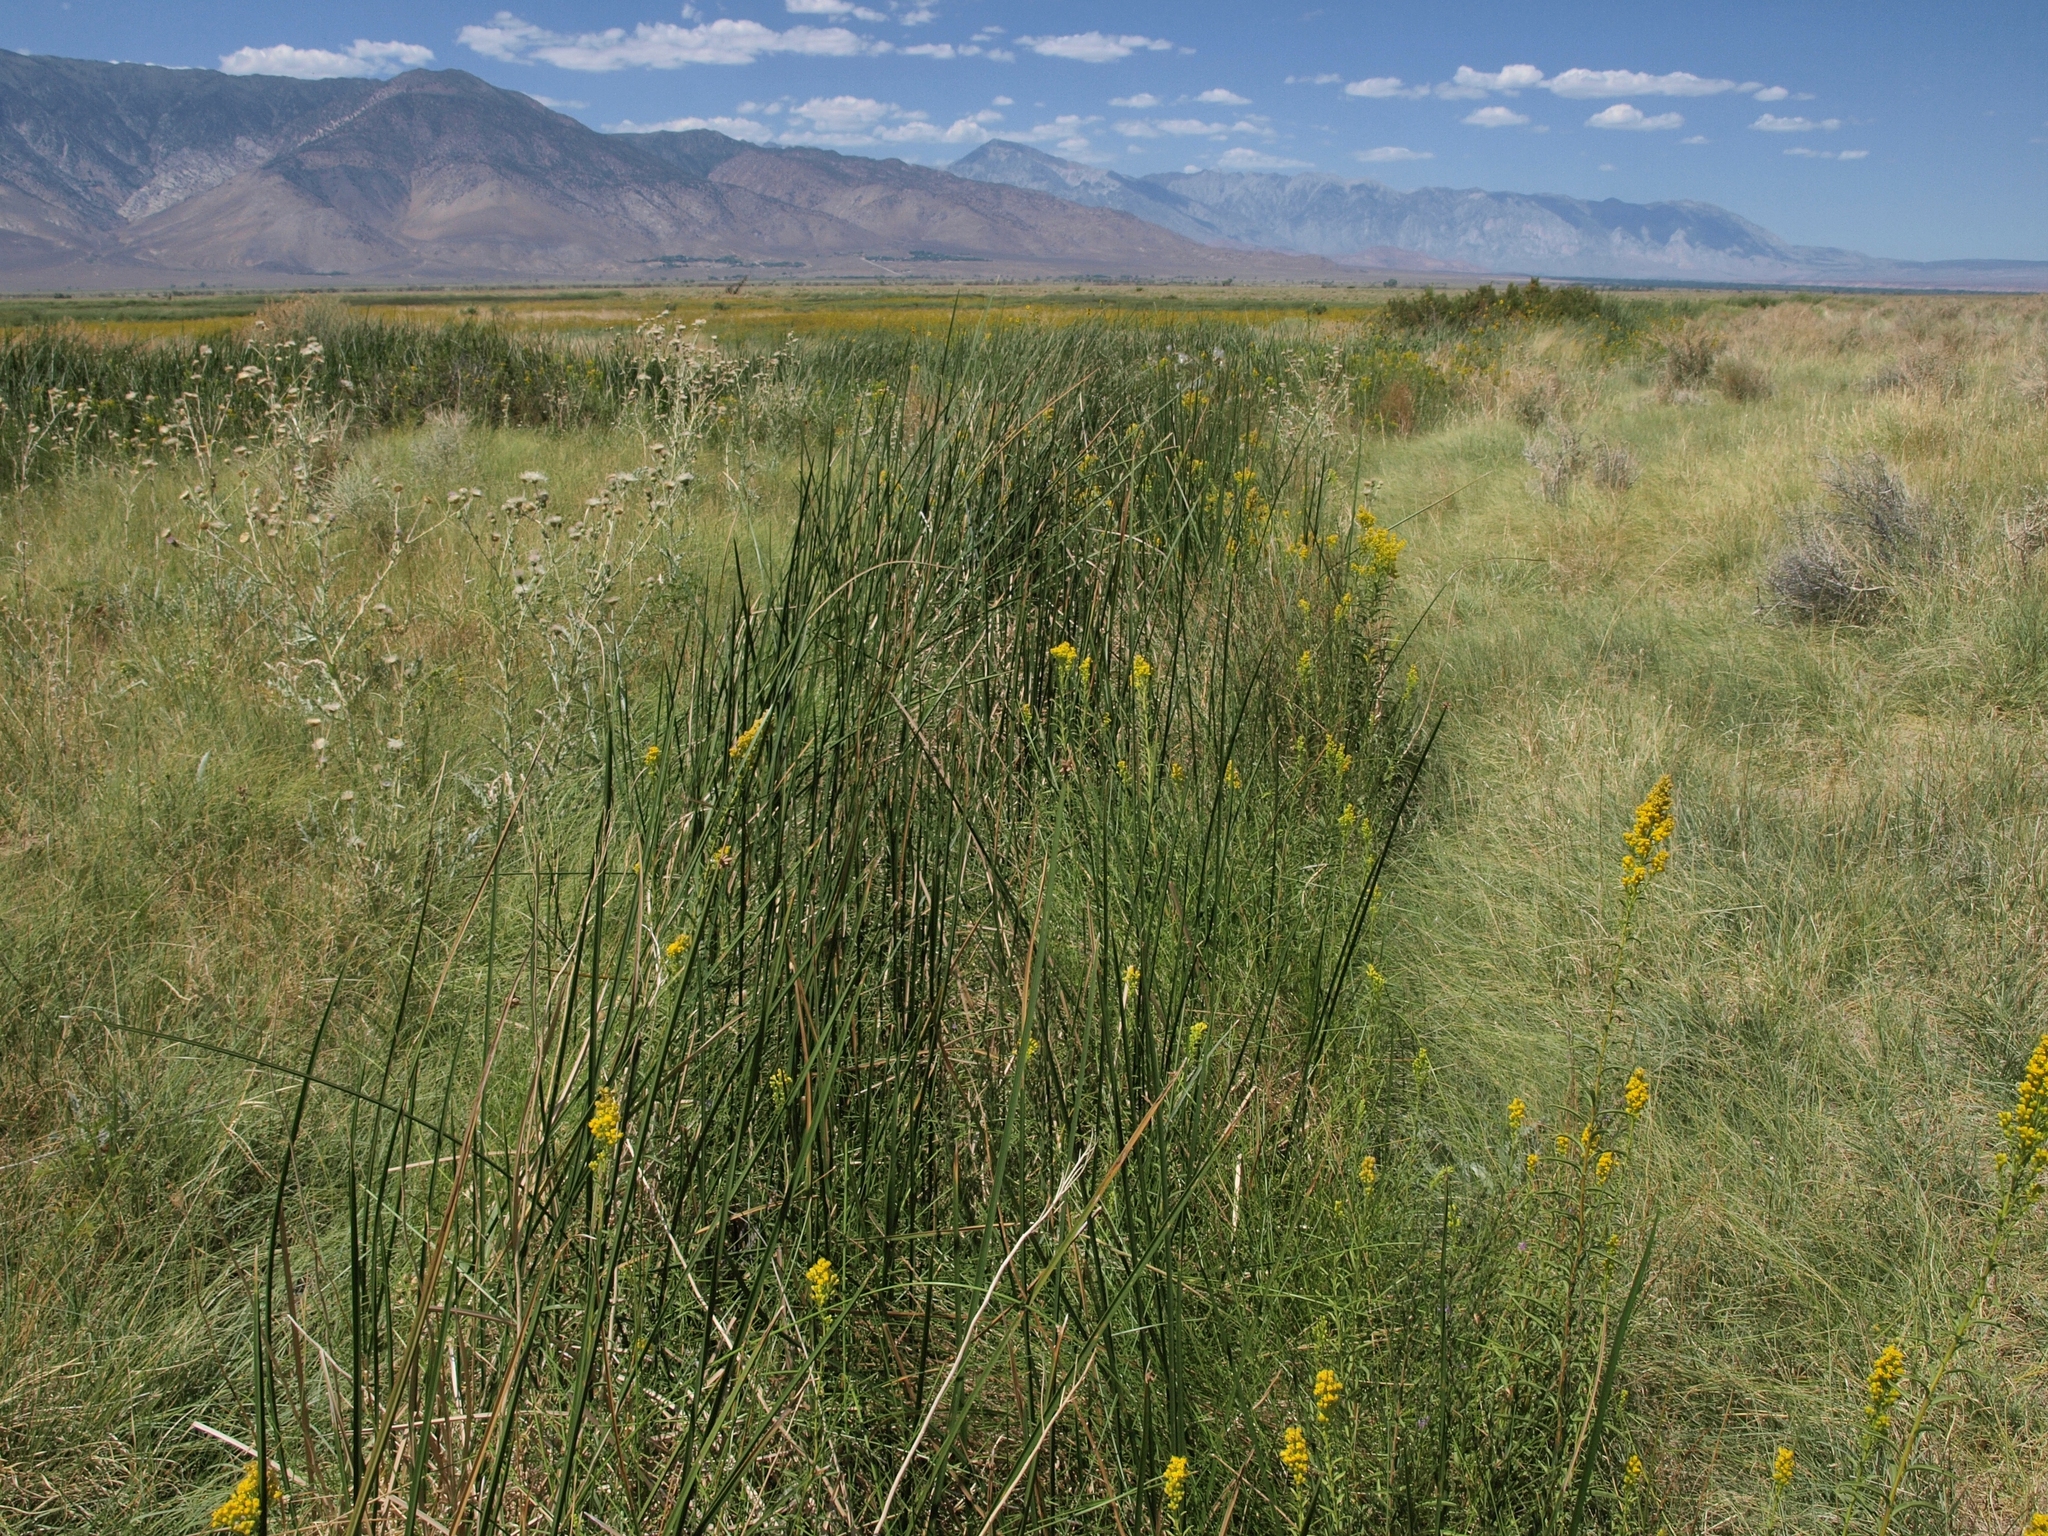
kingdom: Plantae
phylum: Tracheophyta
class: Liliopsida
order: Poales
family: Cyperaceae
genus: Schoenoplectus
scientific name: Schoenoplectus americanus
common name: American three-square bulrush
